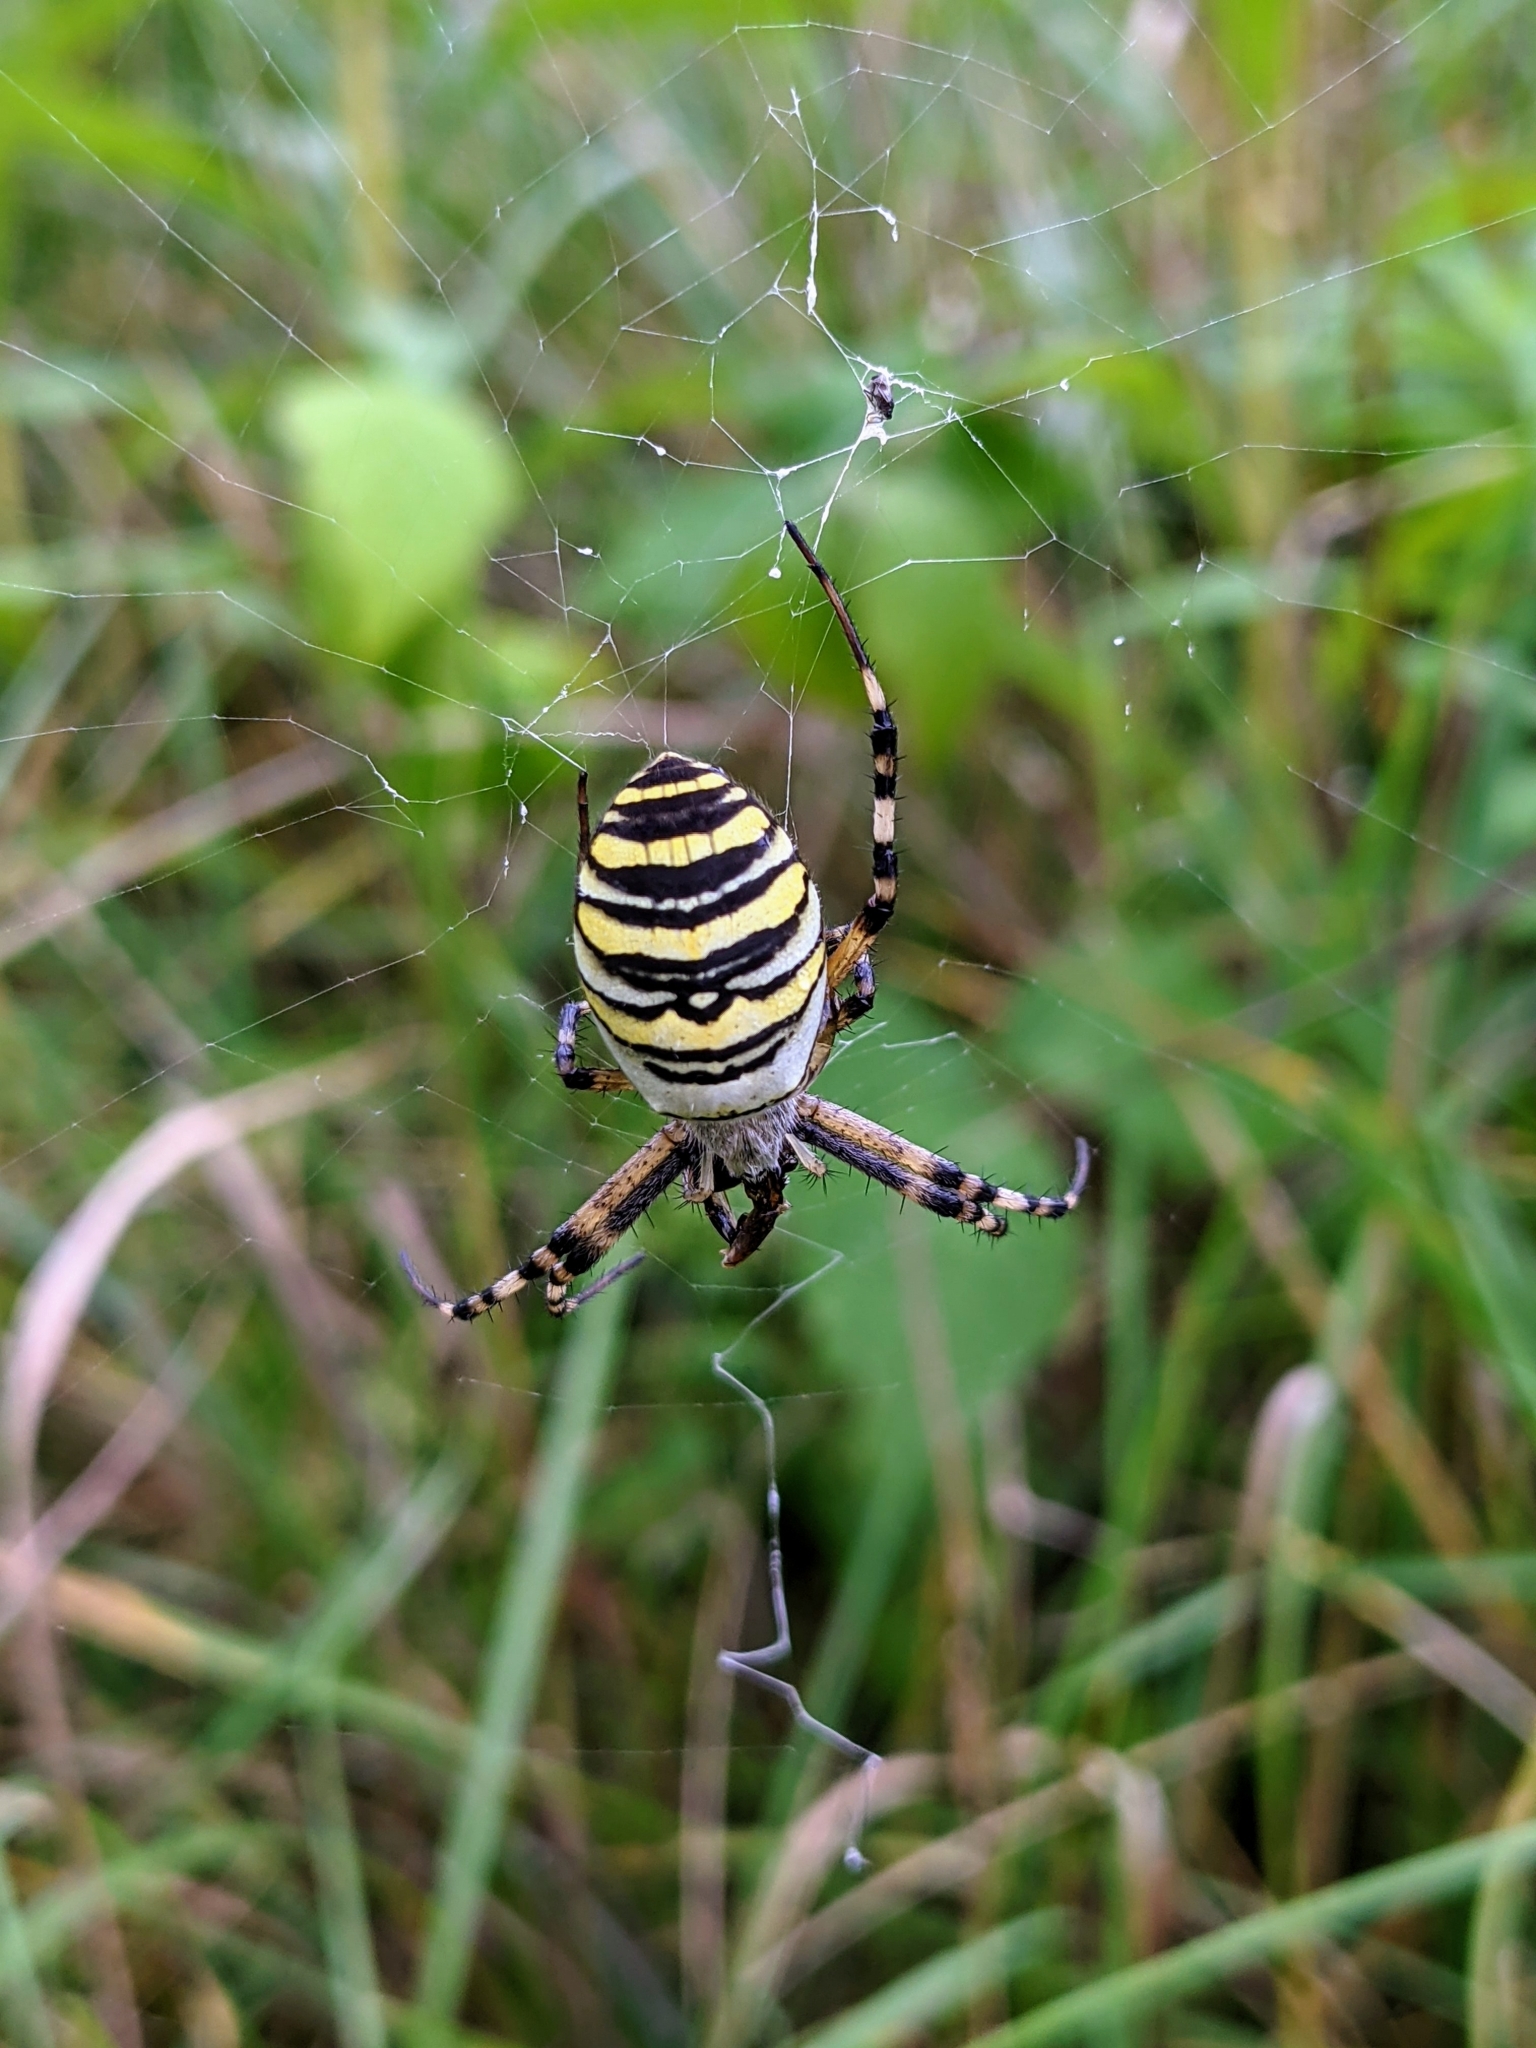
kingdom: Animalia
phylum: Arthropoda
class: Arachnida
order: Araneae
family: Araneidae
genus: Argiope
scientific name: Argiope bruennichi
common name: Wasp spider
